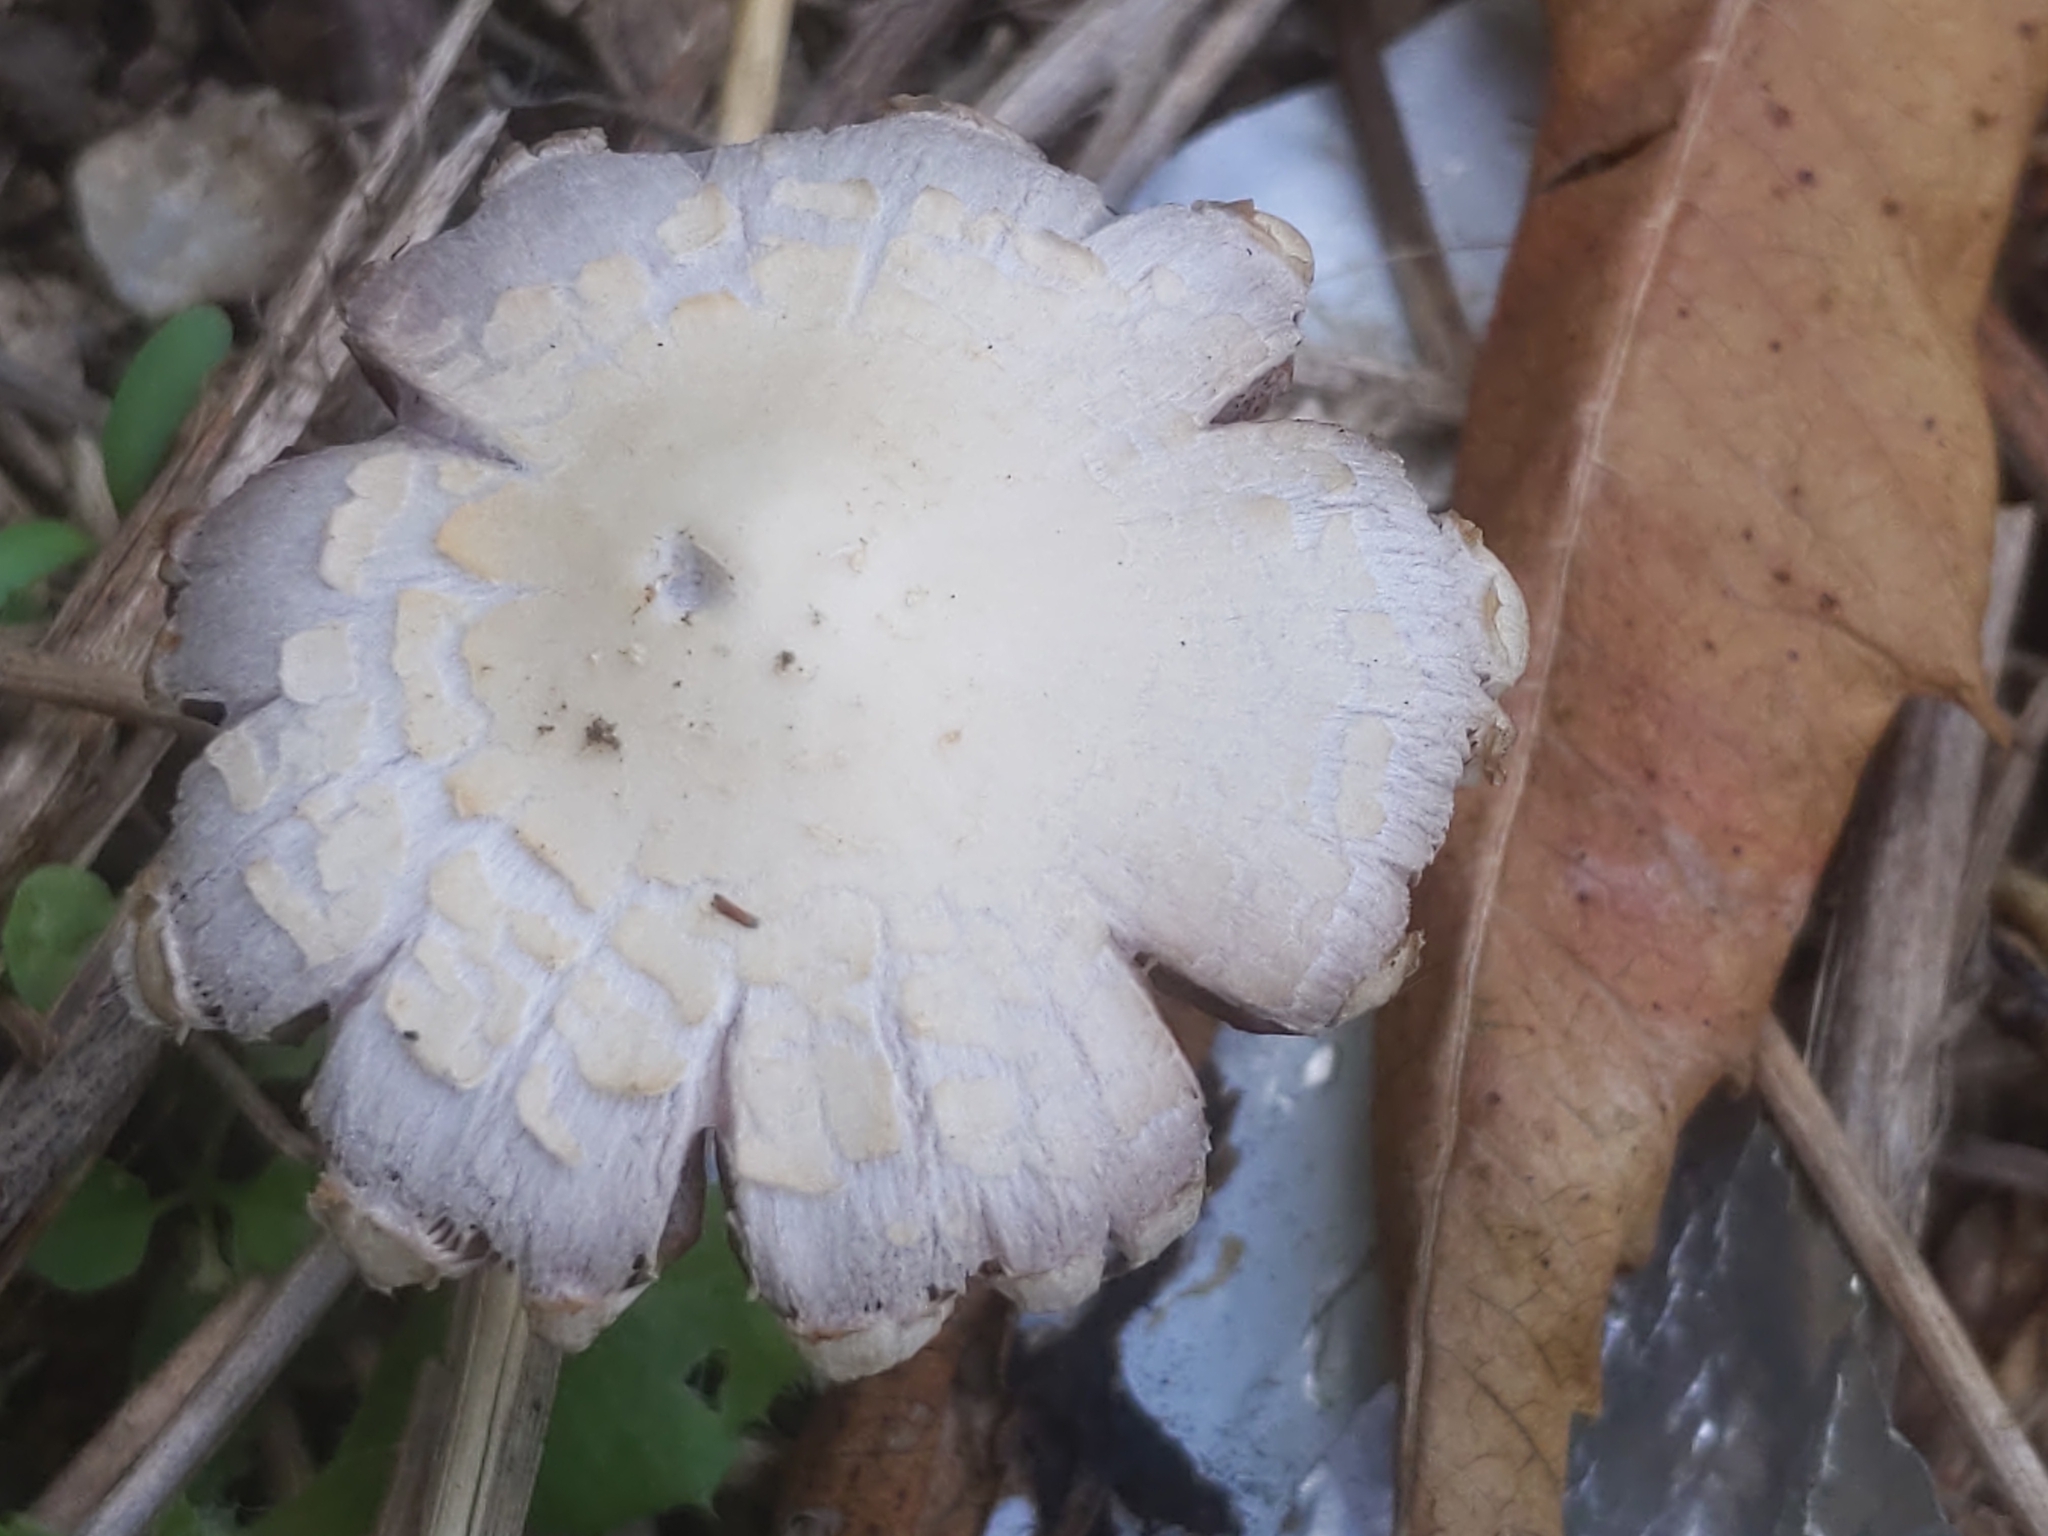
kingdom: Fungi
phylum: Basidiomycota
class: Agaricomycetes
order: Agaricales
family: Psathyrellaceae
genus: Candolleomyces
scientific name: Candolleomyces candolleanus
